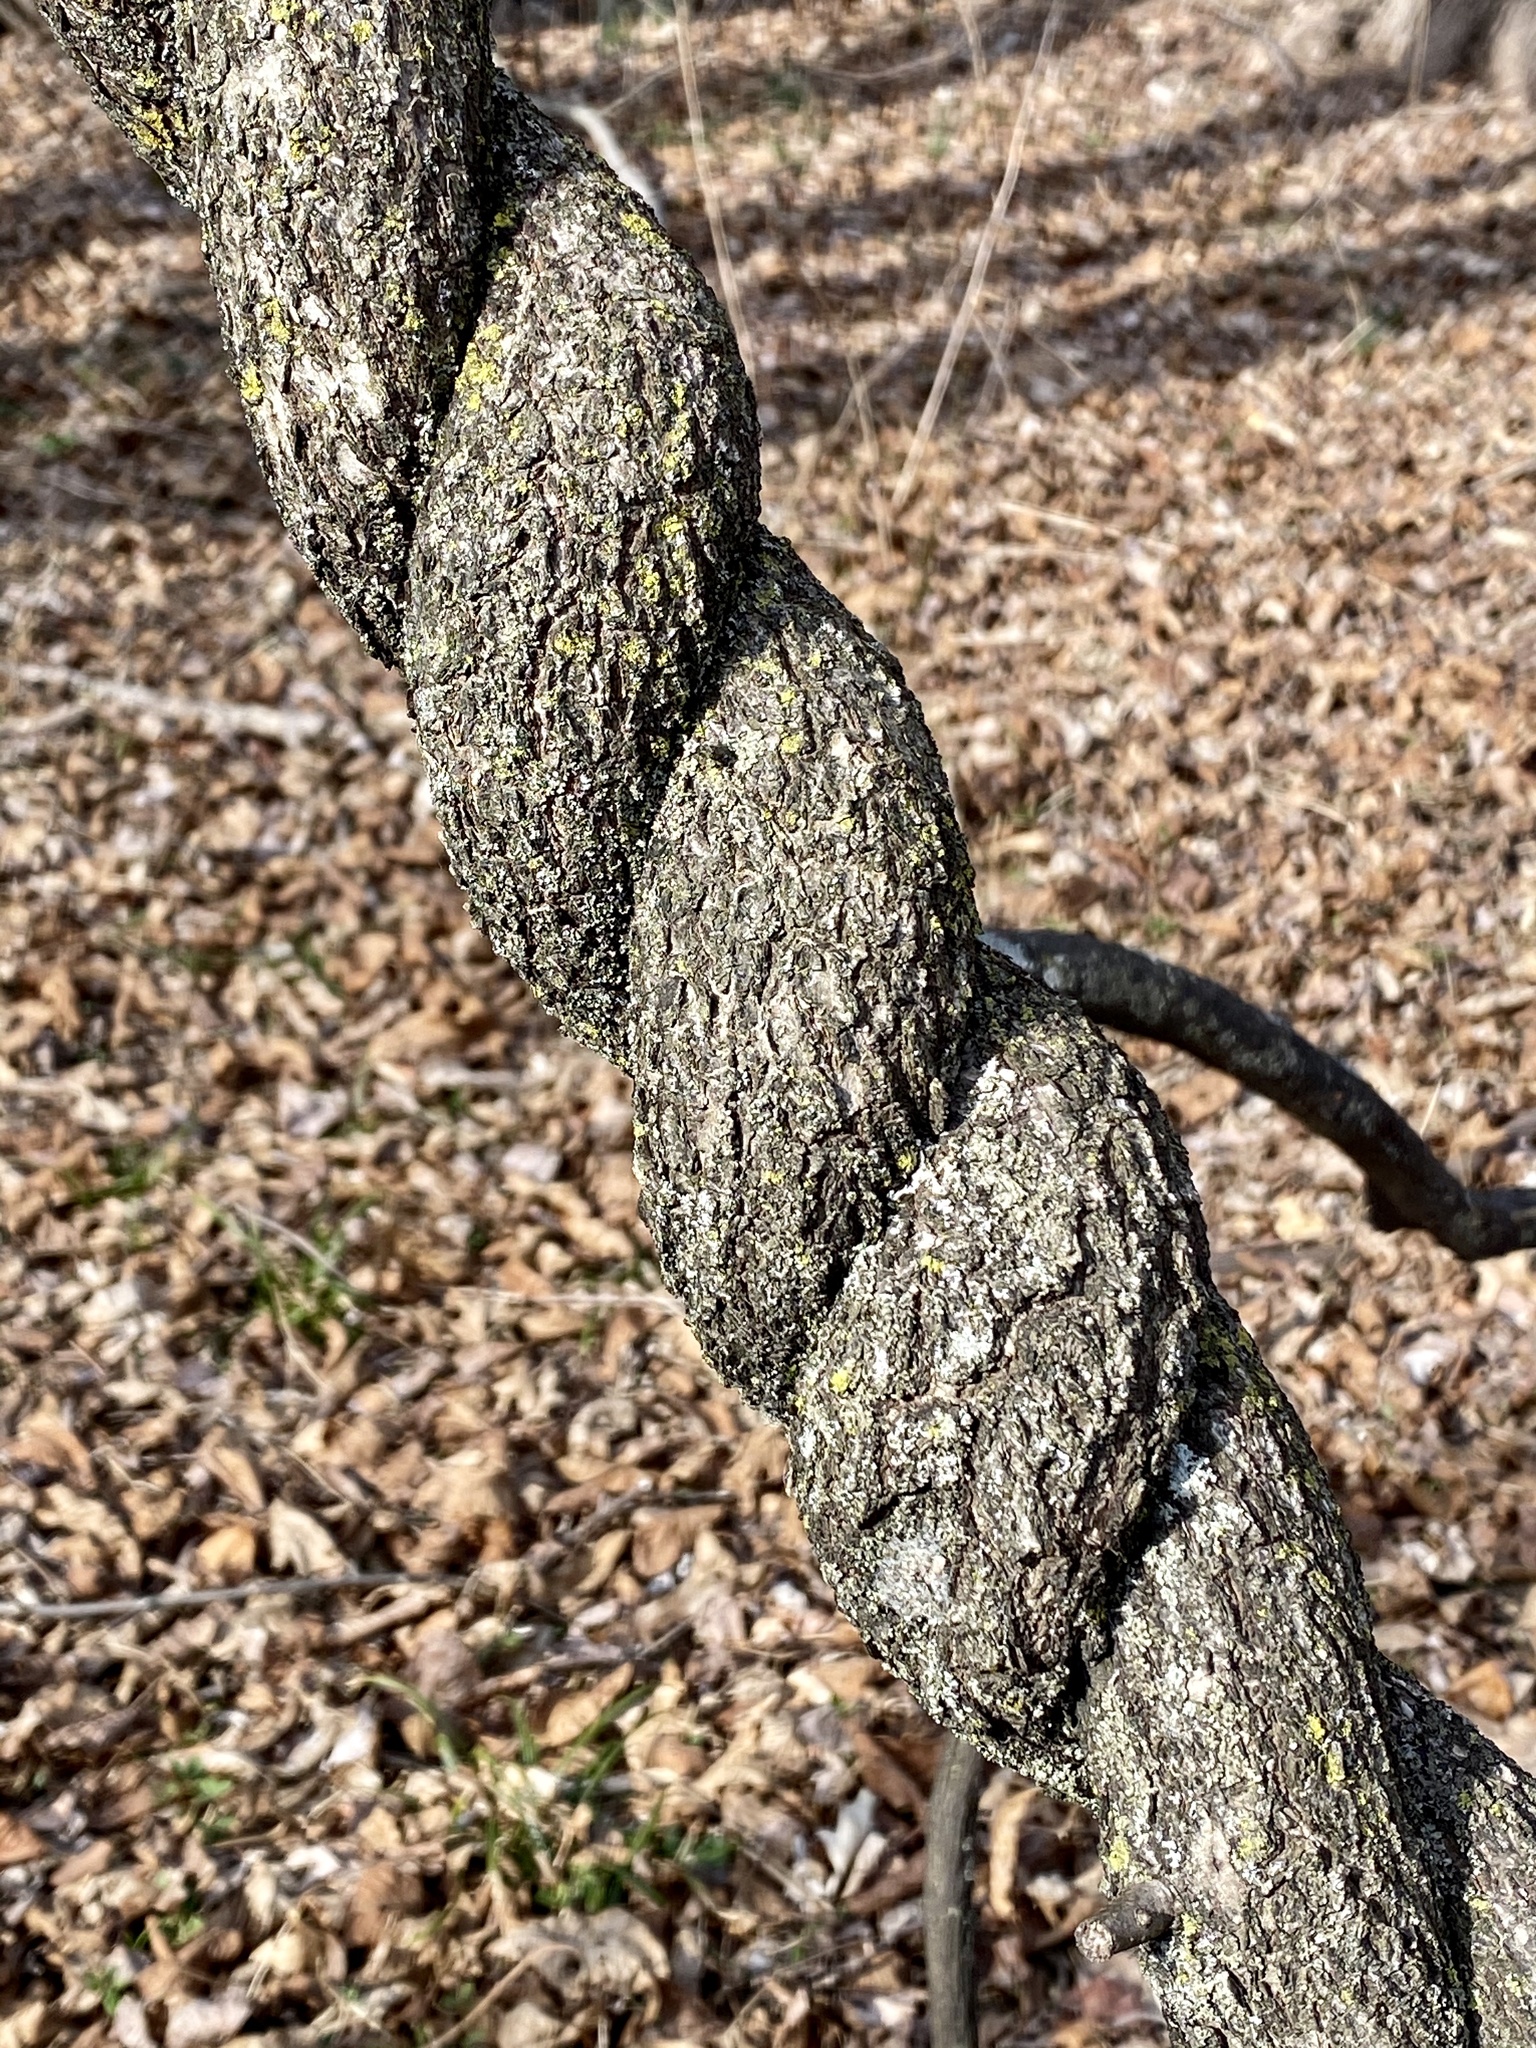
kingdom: Plantae
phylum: Tracheophyta
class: Magnoliopsida
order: Celastrales
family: Celastraceae
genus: Celastrus
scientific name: Celastrus orbiculatus
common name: Oriental bittersweet
